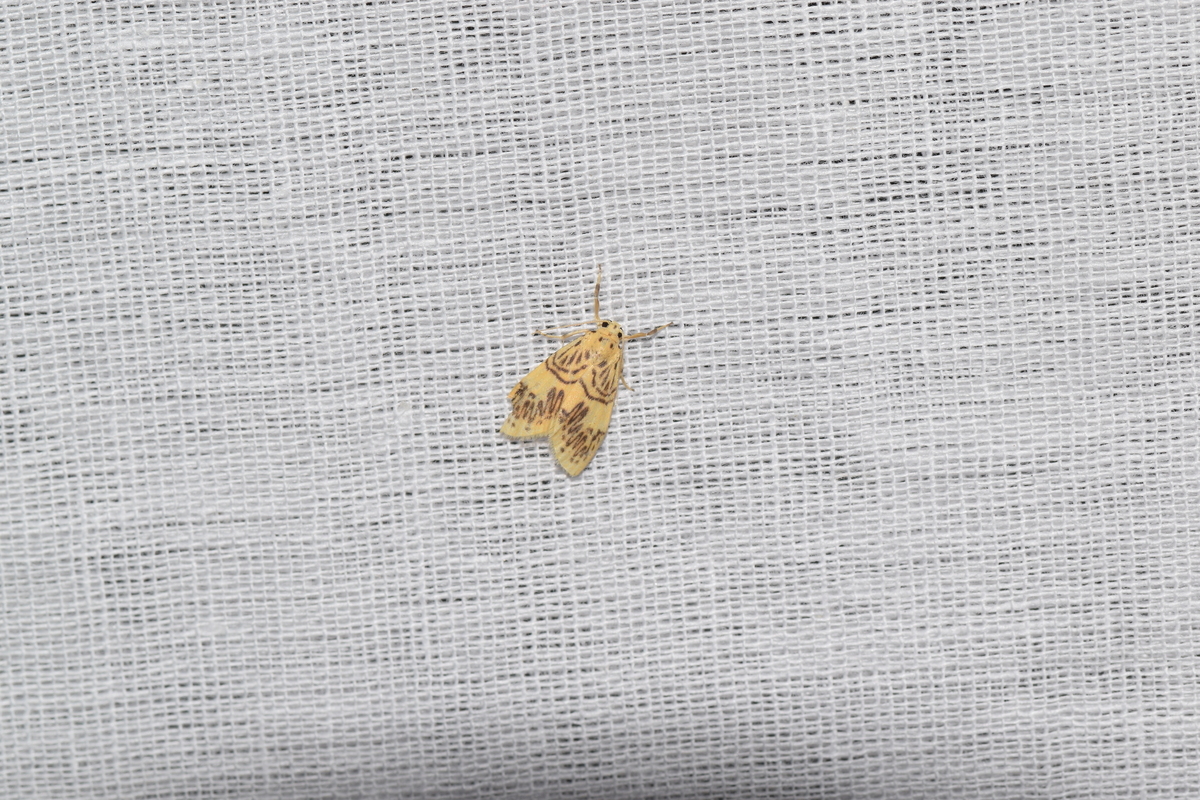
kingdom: Animalia
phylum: Arthropoda
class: Insecta
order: Lepidoptera
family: Erebidae
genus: Barsipennis
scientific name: Barsipennis phaeodonta
